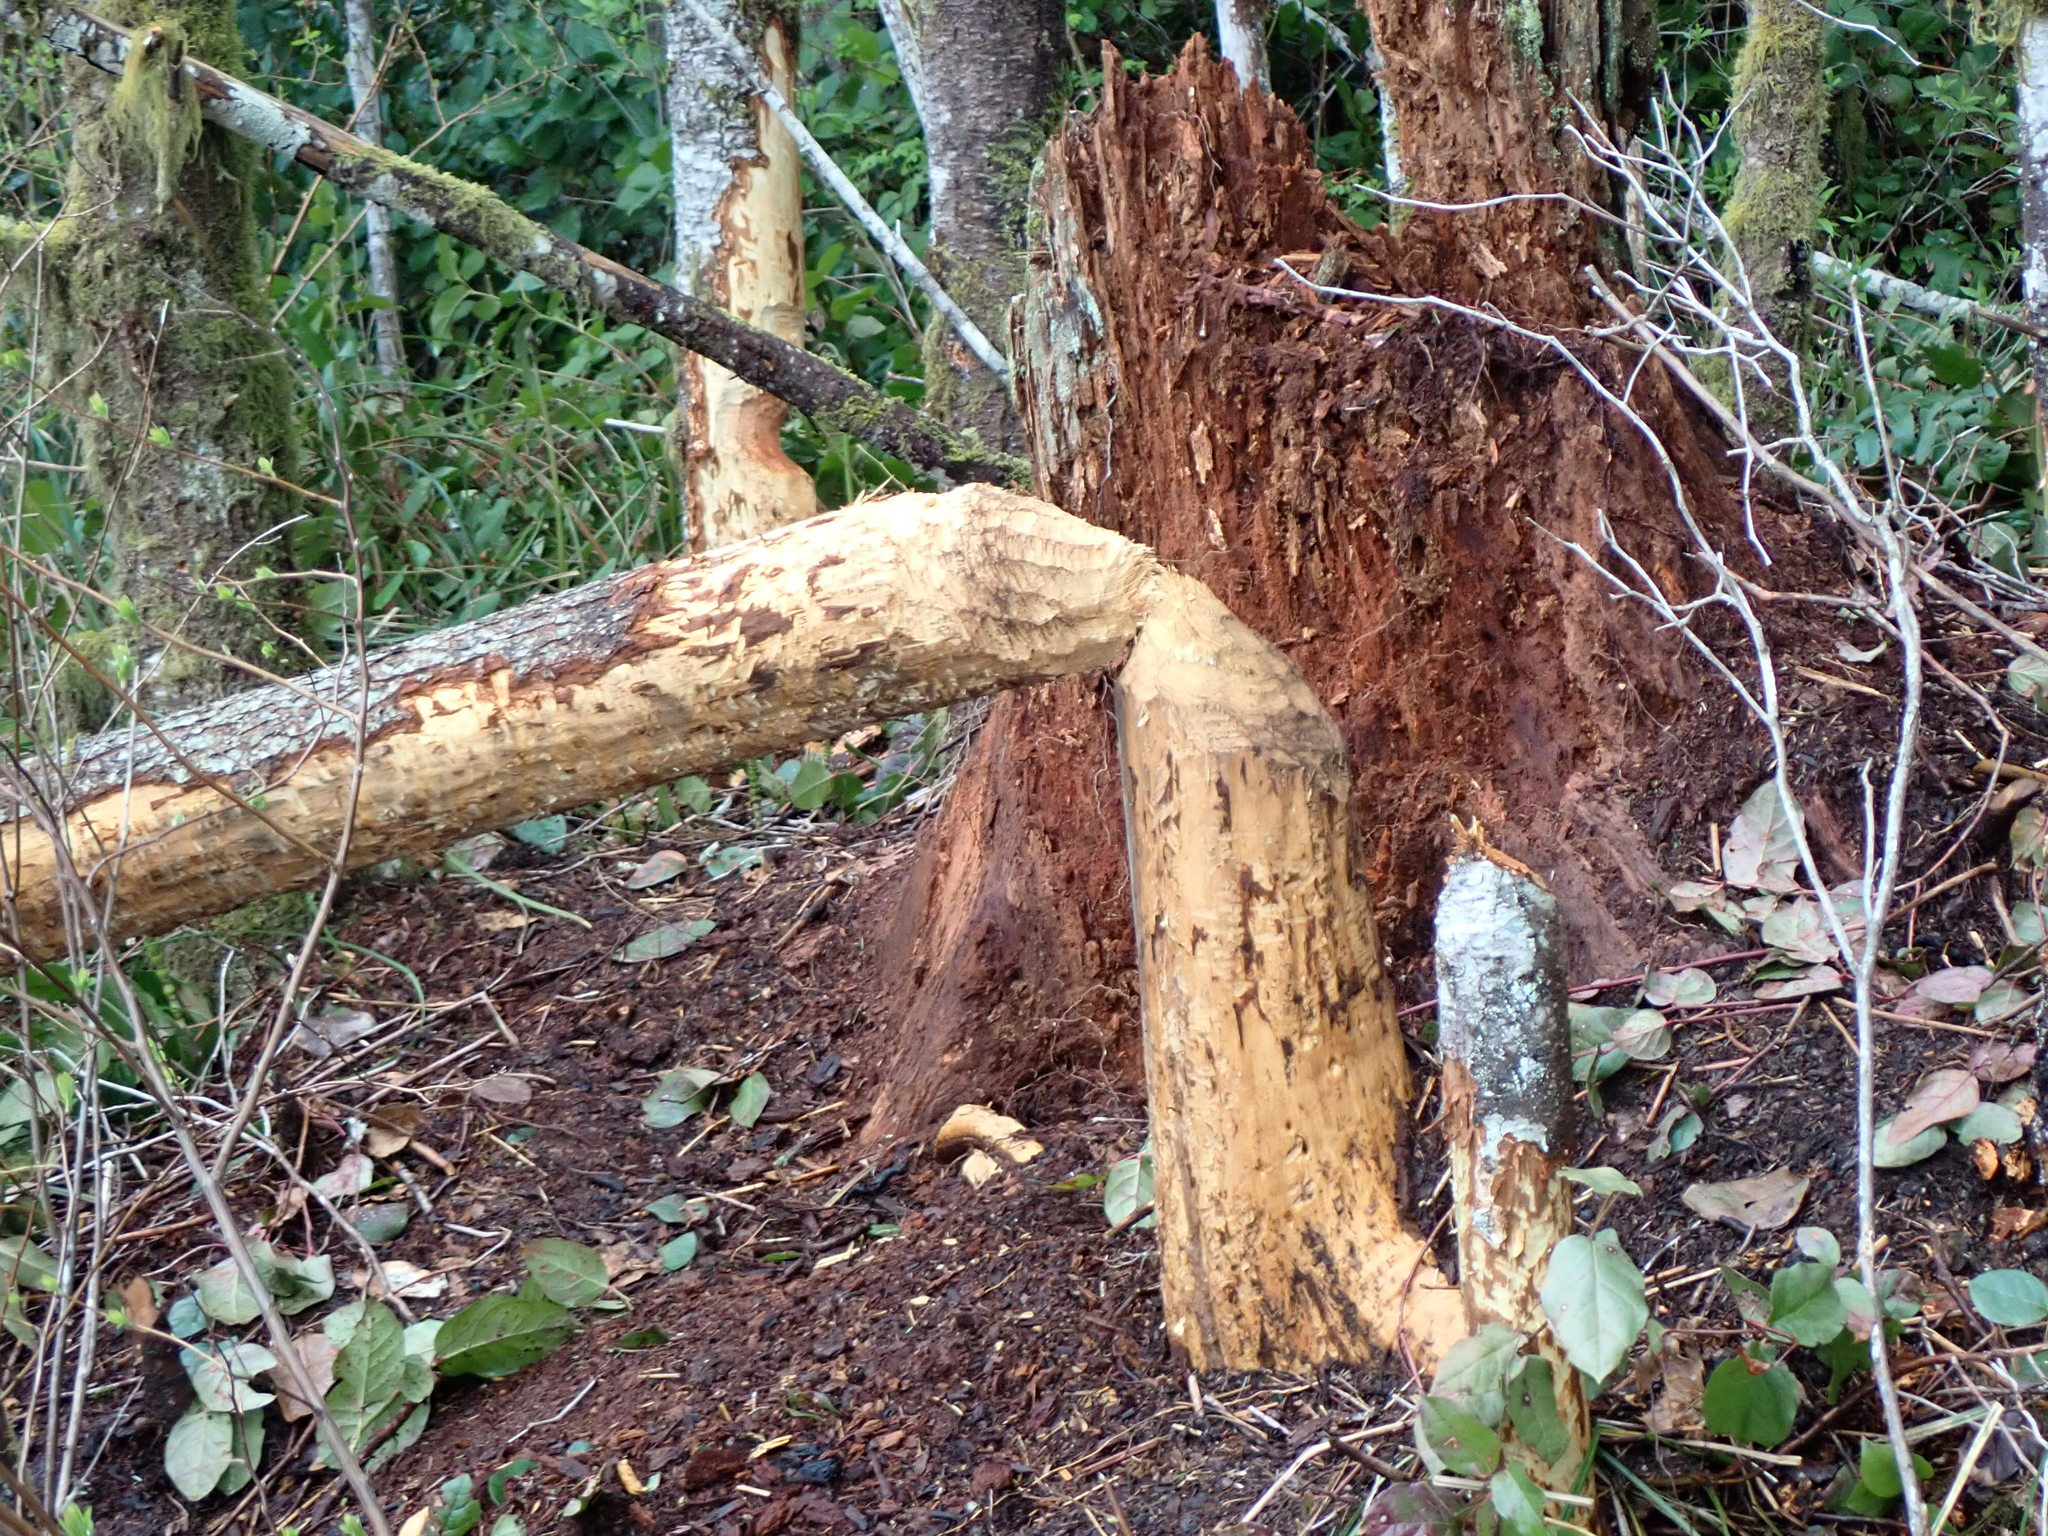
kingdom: Animalia
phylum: Chordata
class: Mammalia
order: Rodentia
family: Castoridae
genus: Castor
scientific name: Castor canadensis
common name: American beaver
